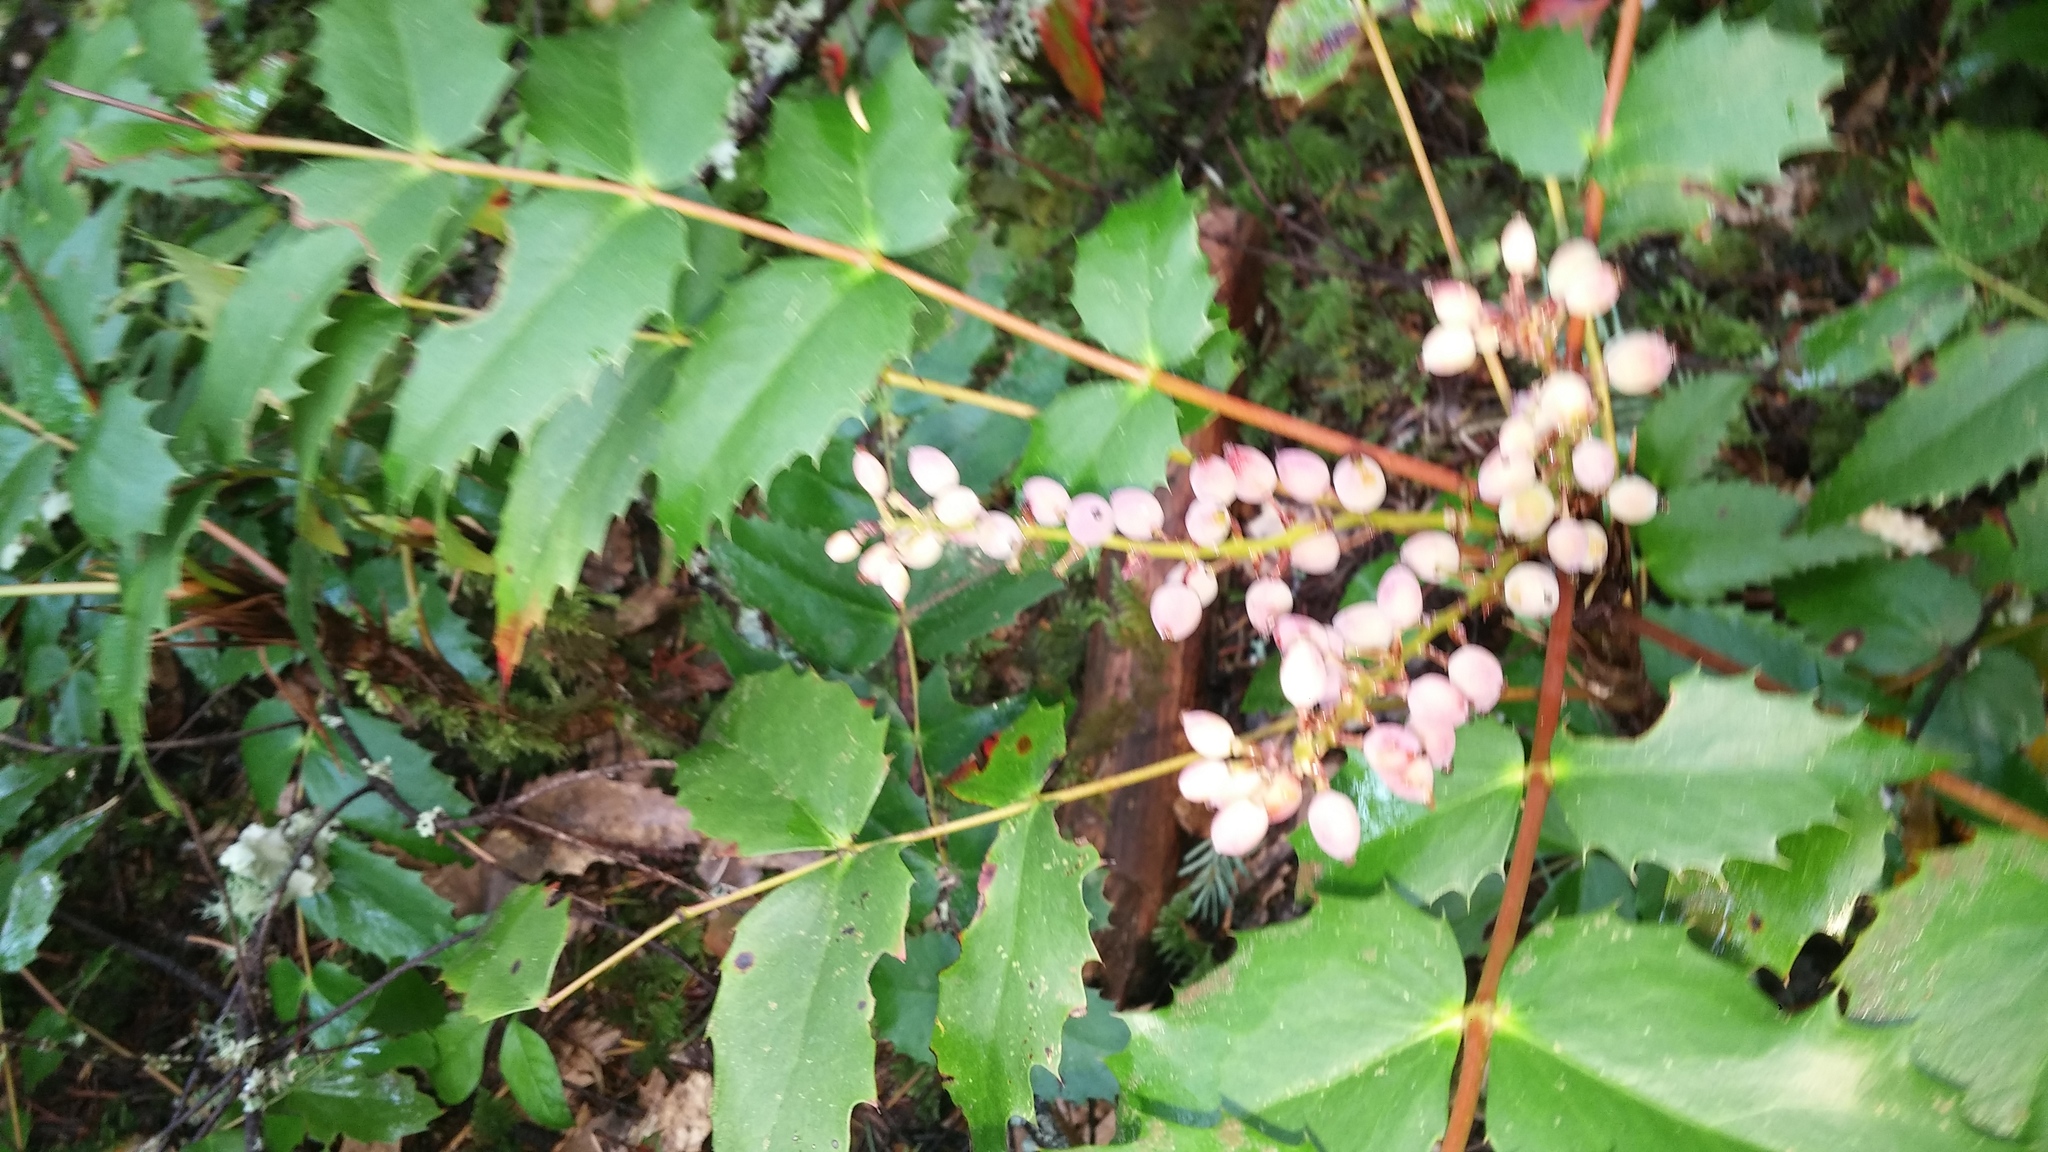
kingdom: Plantae
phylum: Tracheophyta
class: Magnoliopsida
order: Ranunculales
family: Berberidaceae
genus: Mahonia
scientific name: Mahonia nervosa
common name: Cascade oregon-grape
